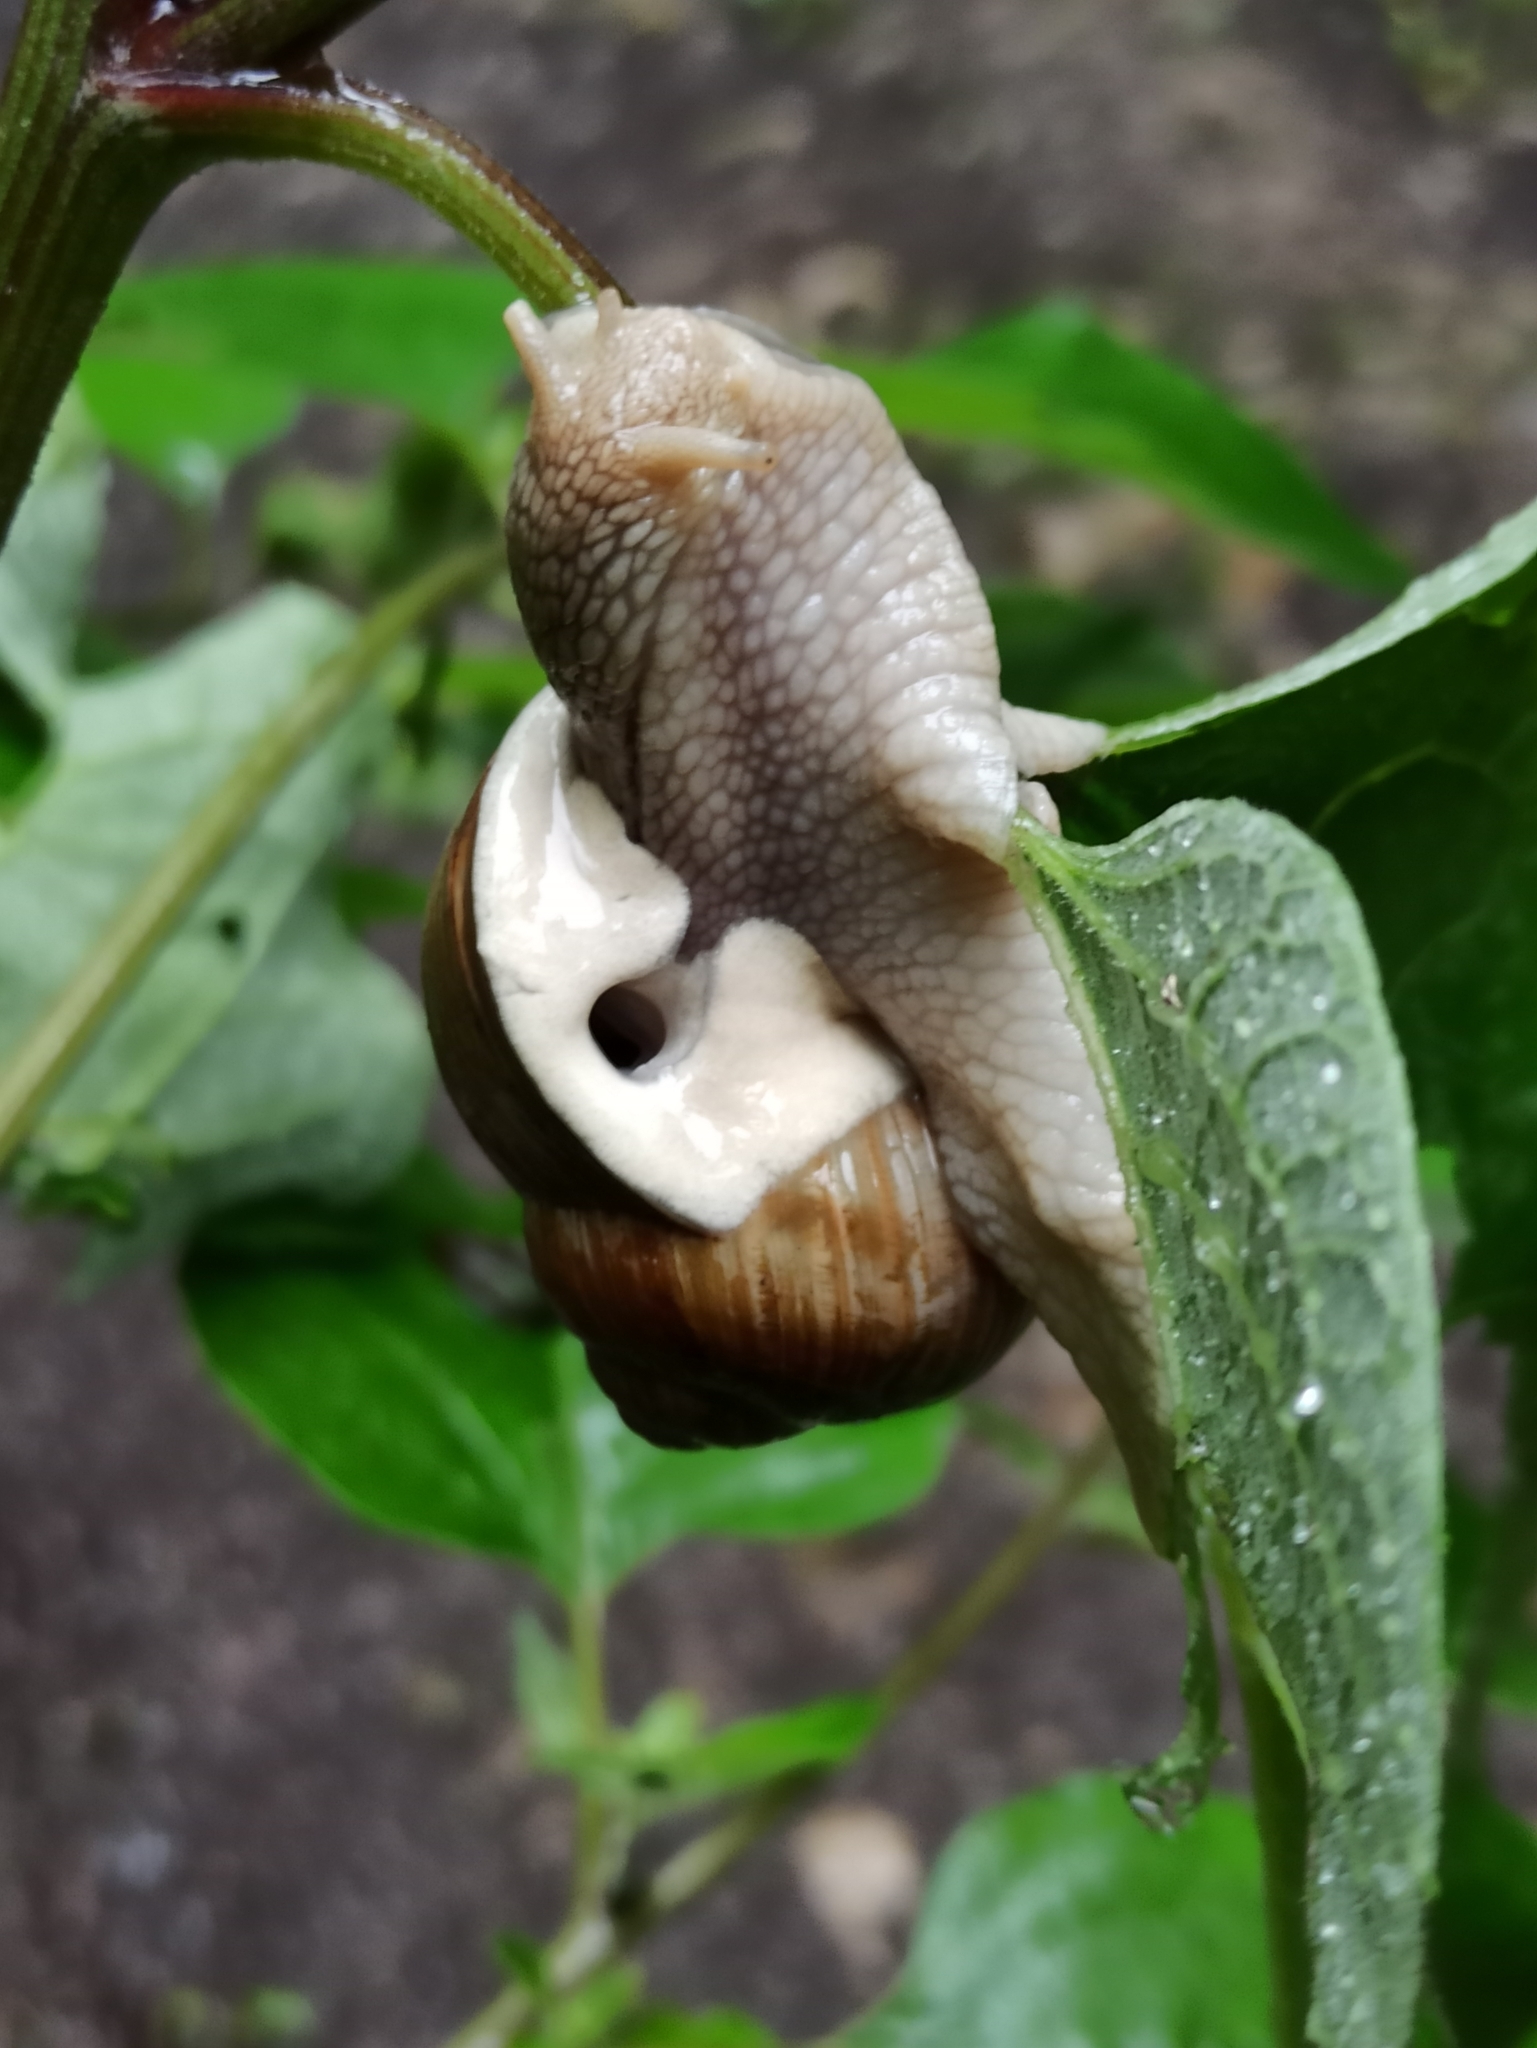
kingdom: Animalia
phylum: Mollusca
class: Gastropoda
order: Stylommatophora
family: Helicidae
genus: Helix
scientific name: Helix pomatia
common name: Roman snail
